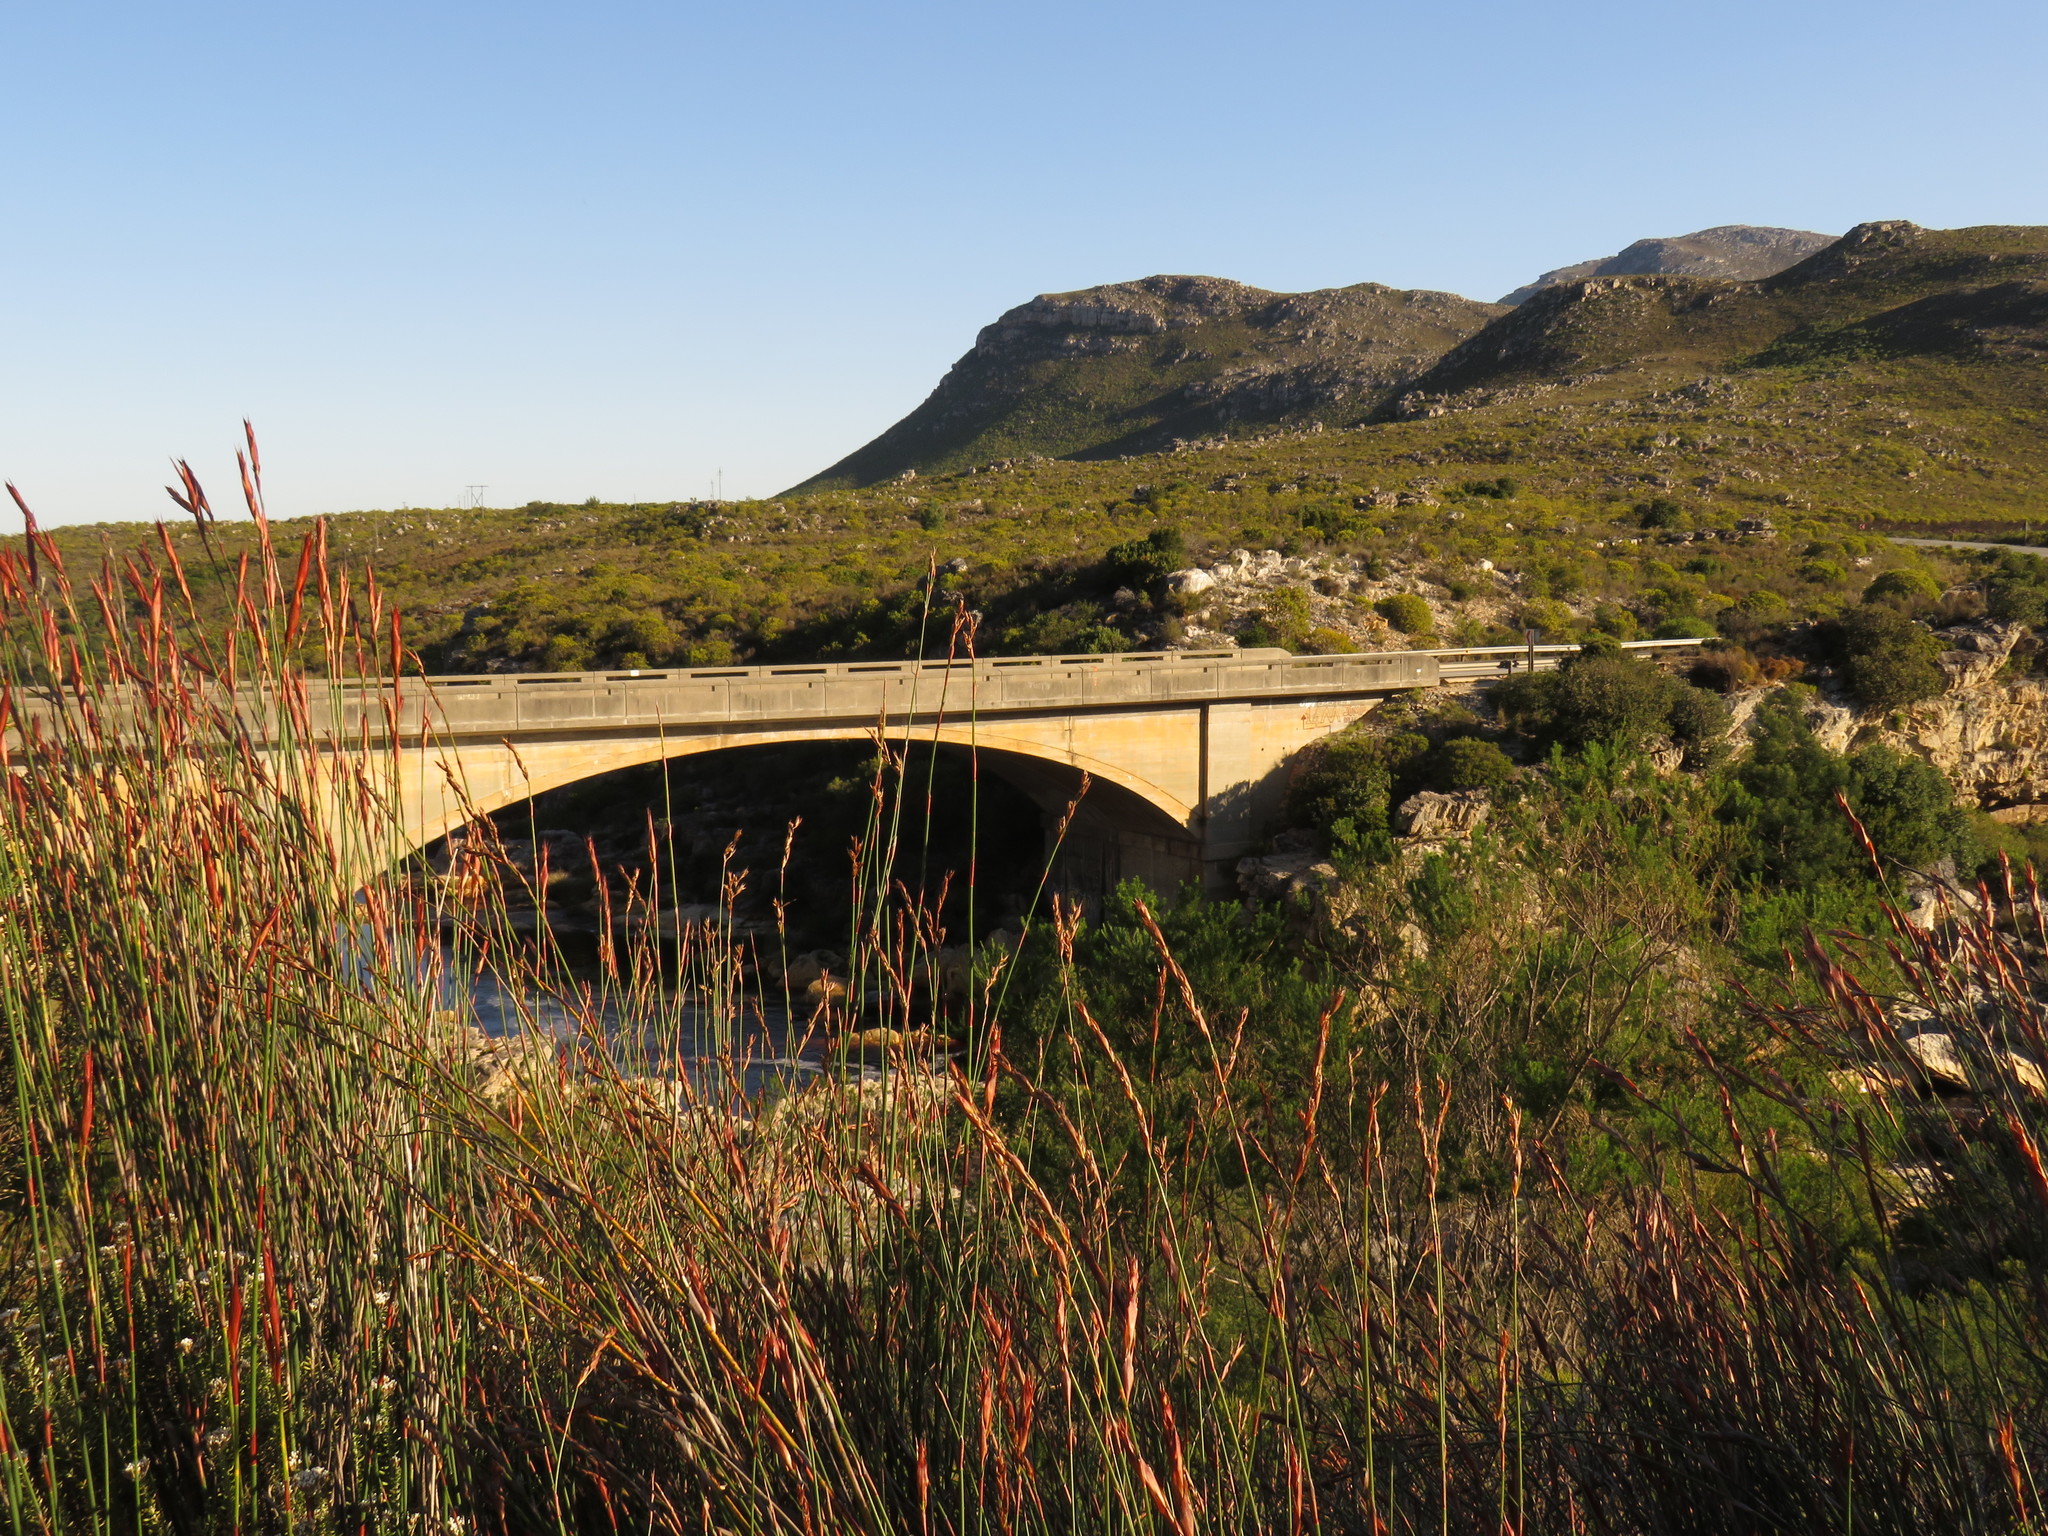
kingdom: Plantae
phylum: Tracheophyta
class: Liliopsida
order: Poales
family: Restionaceae
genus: Restio
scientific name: Restio dispar
